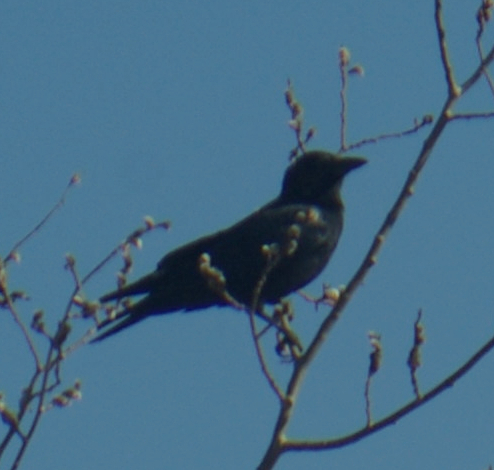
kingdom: Animalia
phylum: Chordata
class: Aves
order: Passeriformes
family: Corvidae
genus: Corvus
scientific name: Corvus brachyrhynchos
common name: American crow
